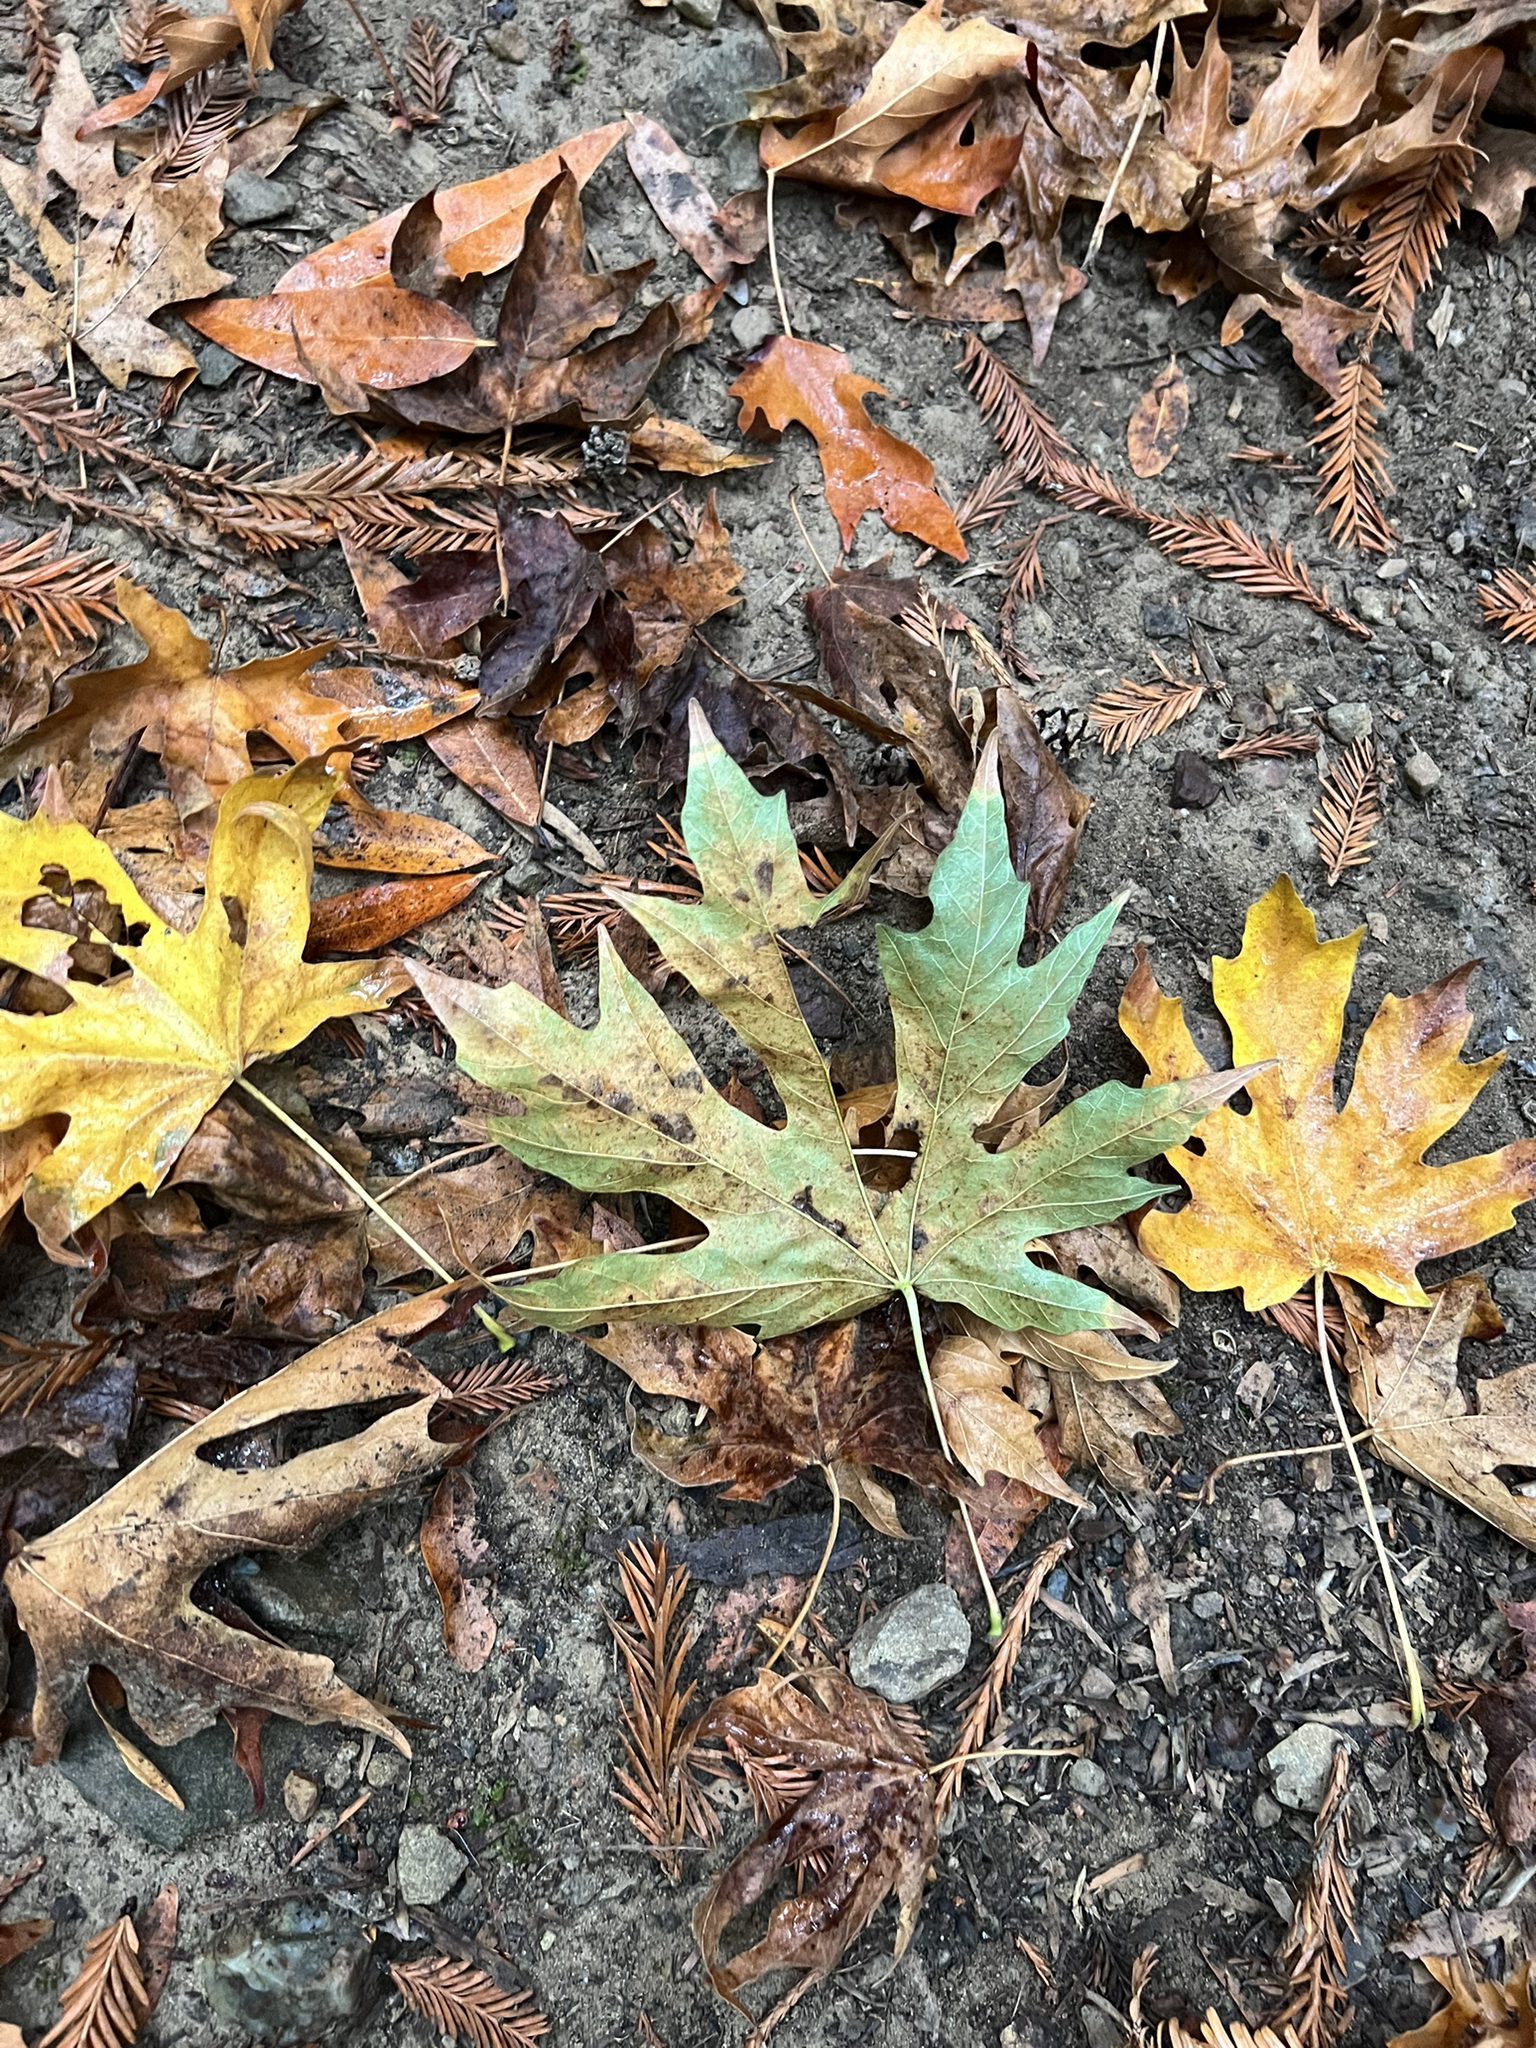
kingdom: Plantae
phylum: Tracheophyta
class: Magnoliopsida
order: Sapindales
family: Sapindaceae
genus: Acer
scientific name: Acer macrophyllum
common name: Oregon maple
